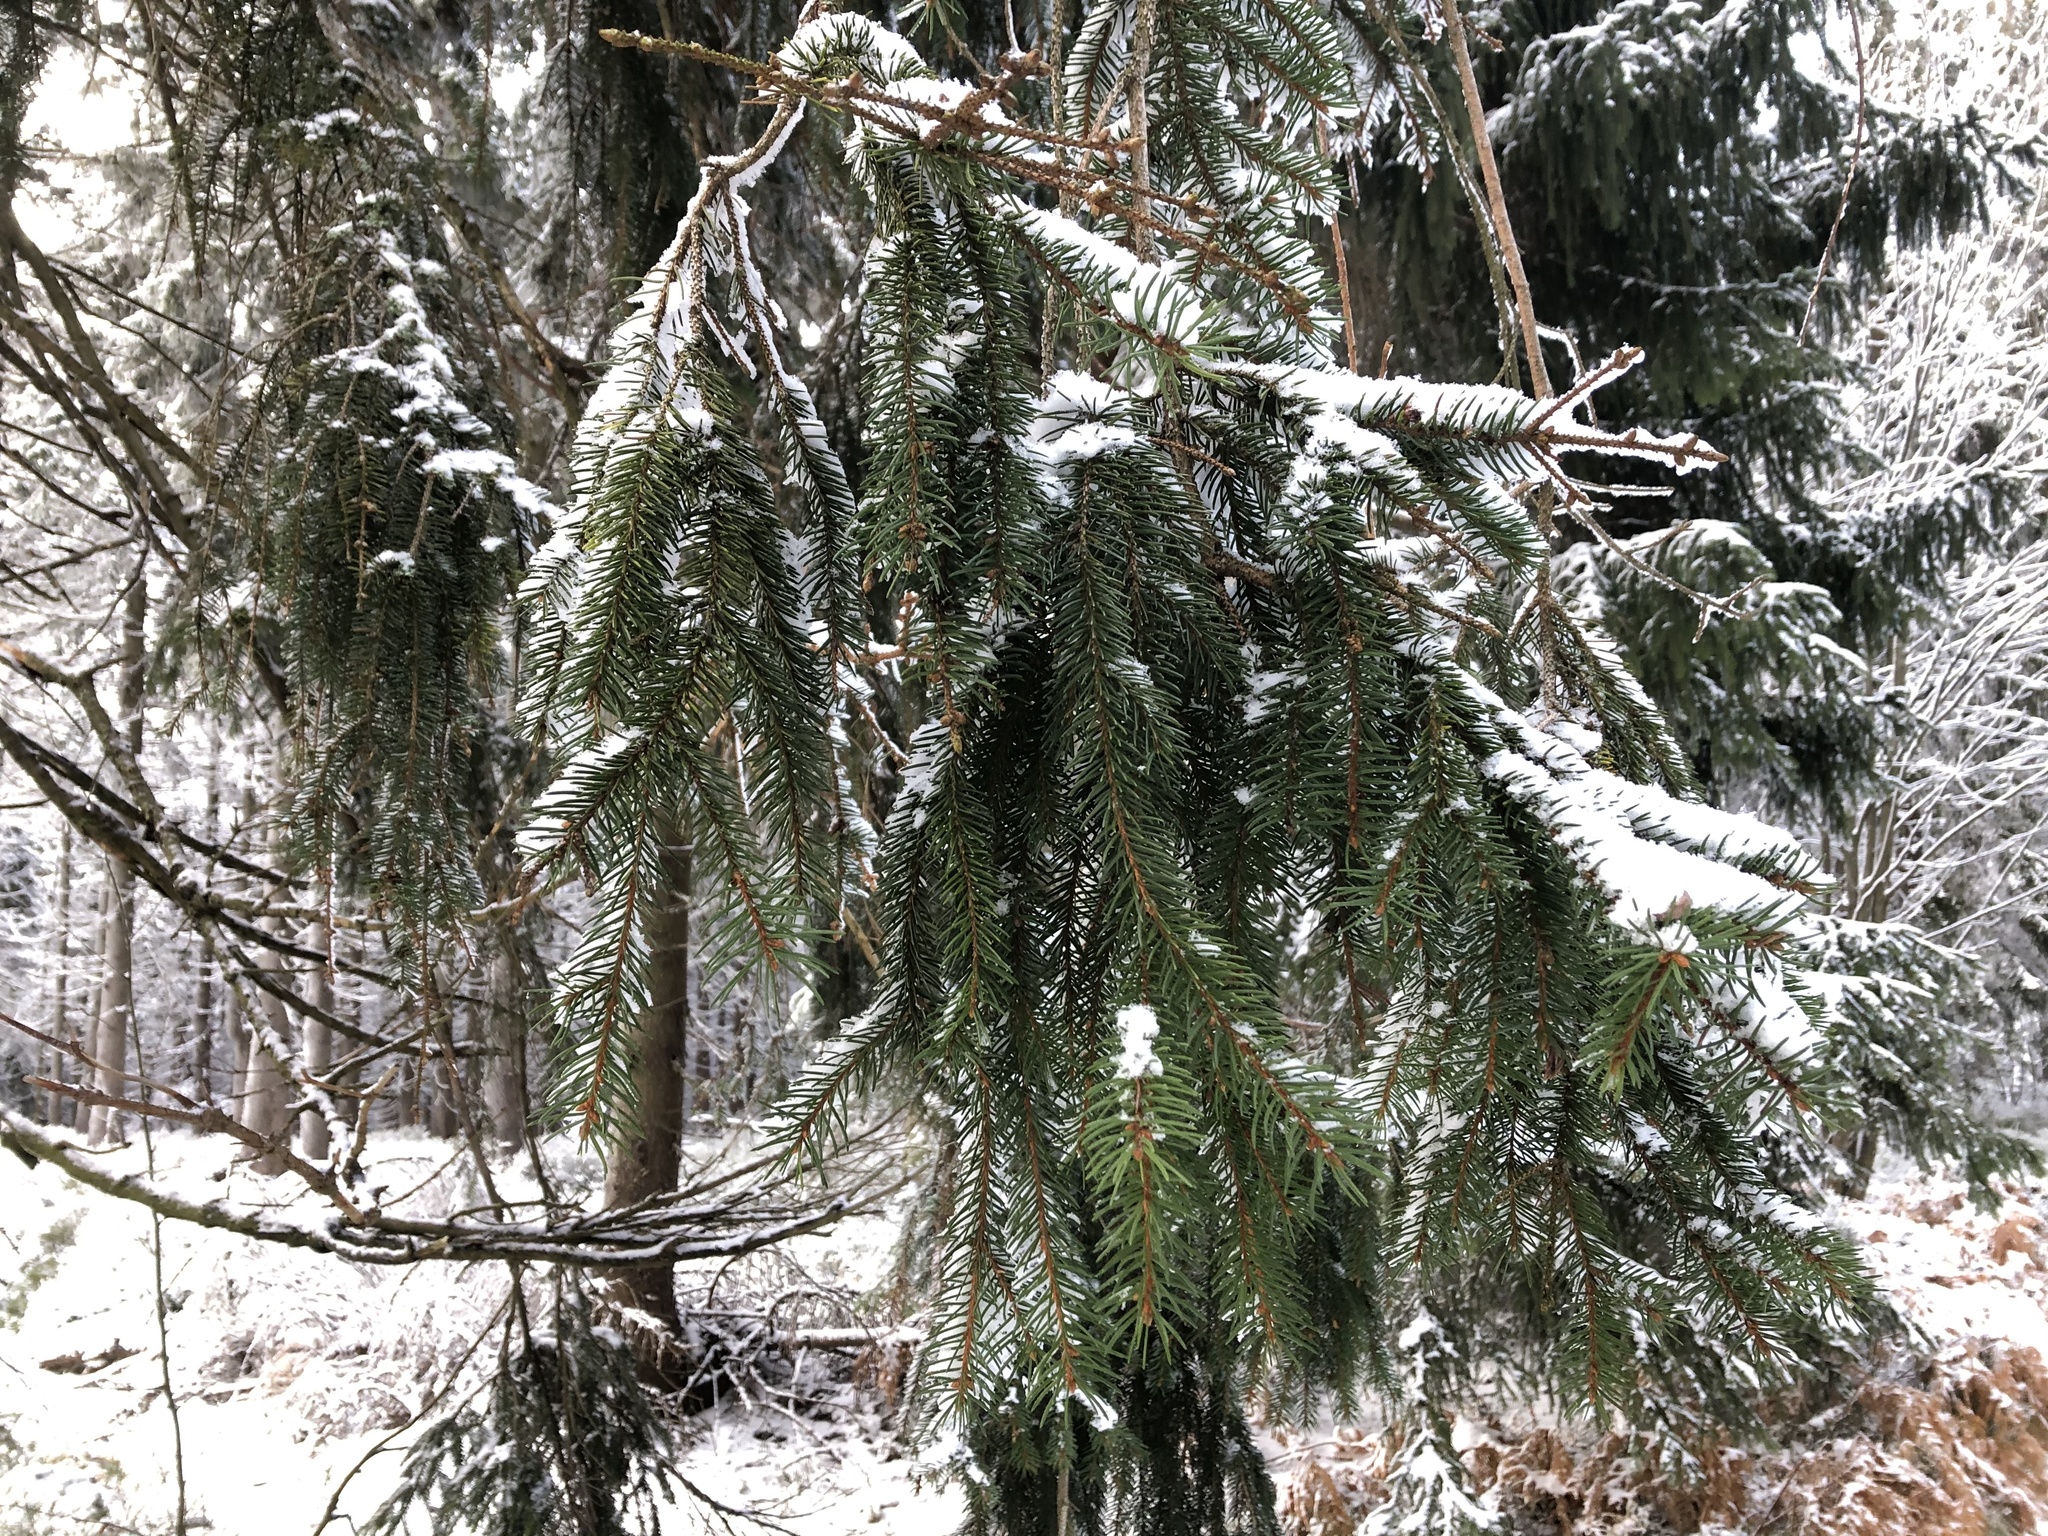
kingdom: Plantae
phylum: Tracheophyta
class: Pinopsida
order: Pinales
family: Pinaceae
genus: Picea
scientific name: Picea abies
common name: Norway spruce
